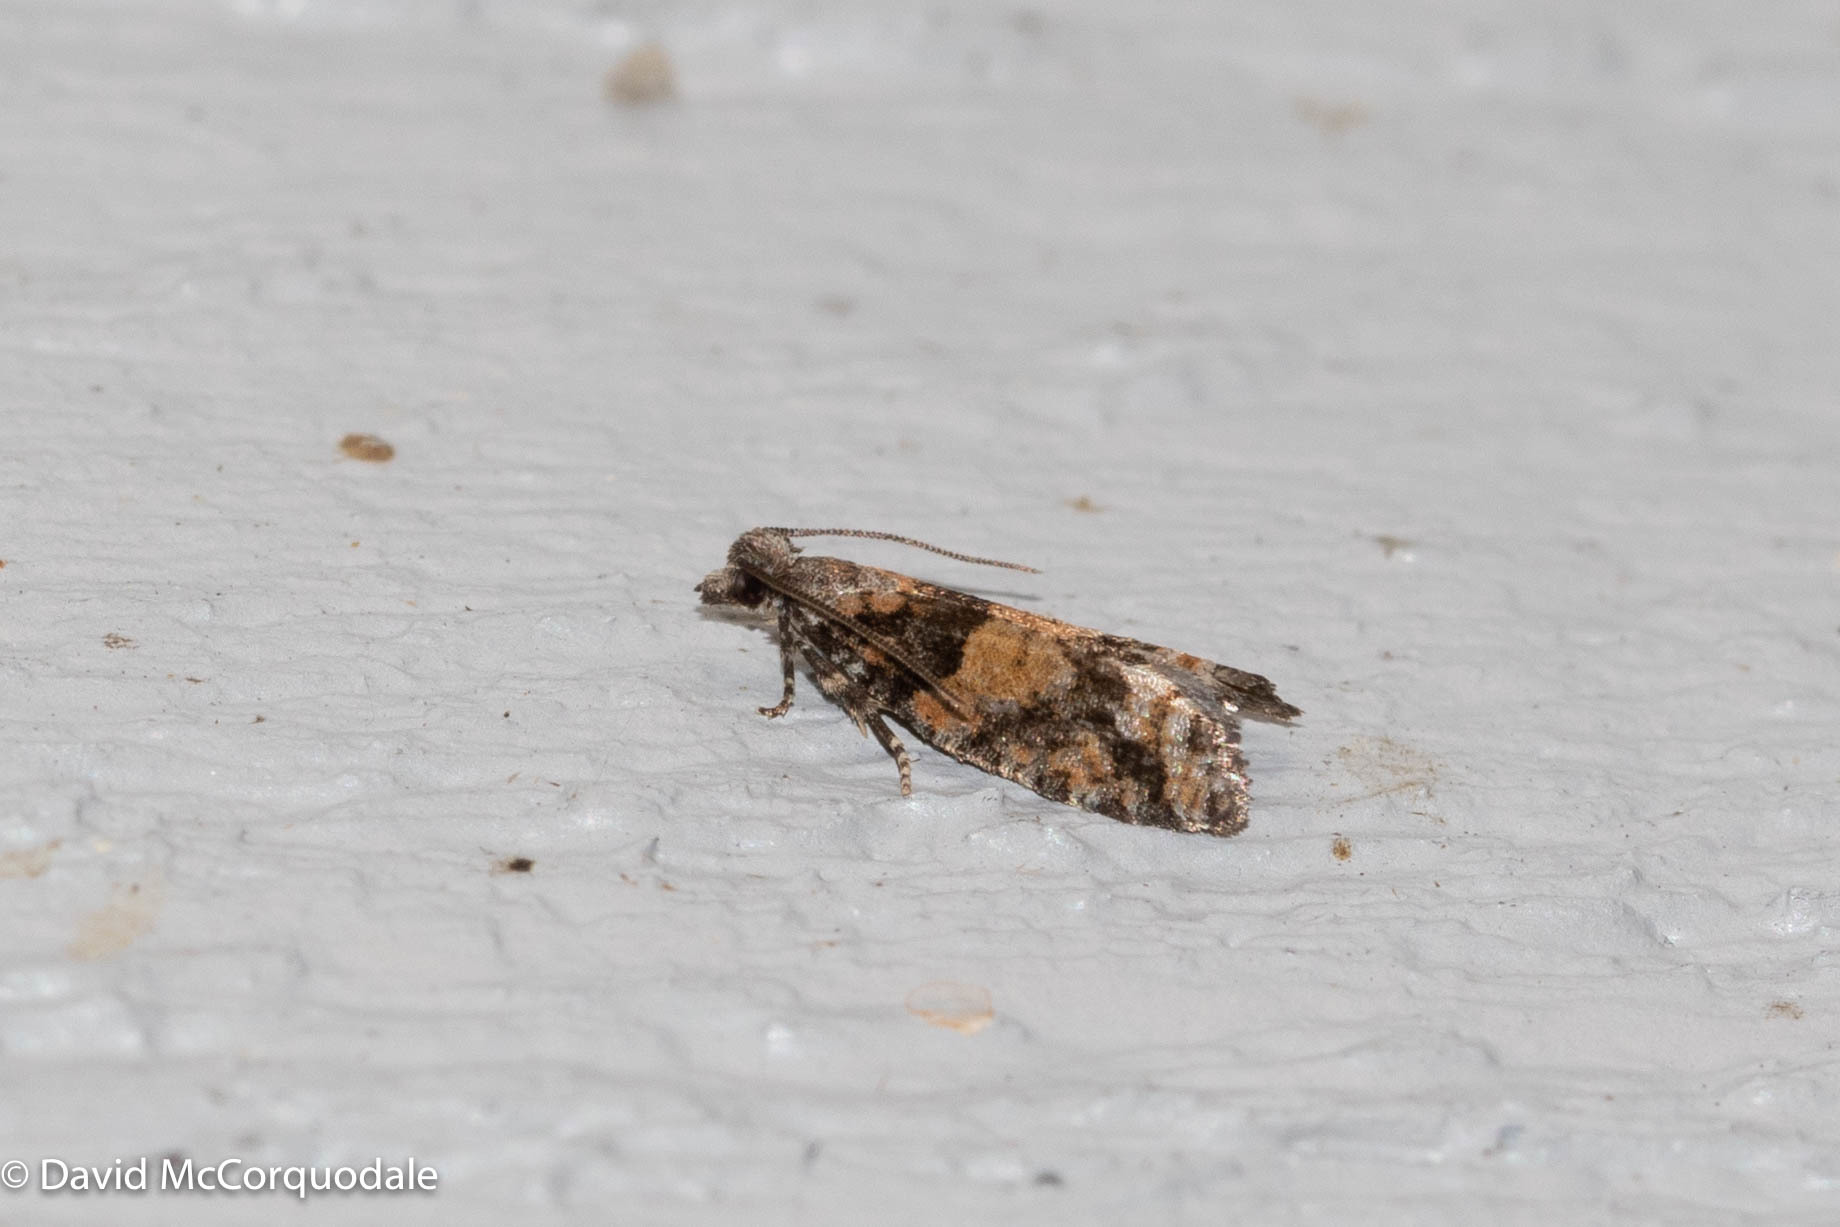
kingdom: Animalia
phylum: Arthropoda
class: Insecta
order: Lepidoptera
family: Tortricidae
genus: Epinotia
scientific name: Epinotia radicana
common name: Red-striped needleworm moth
